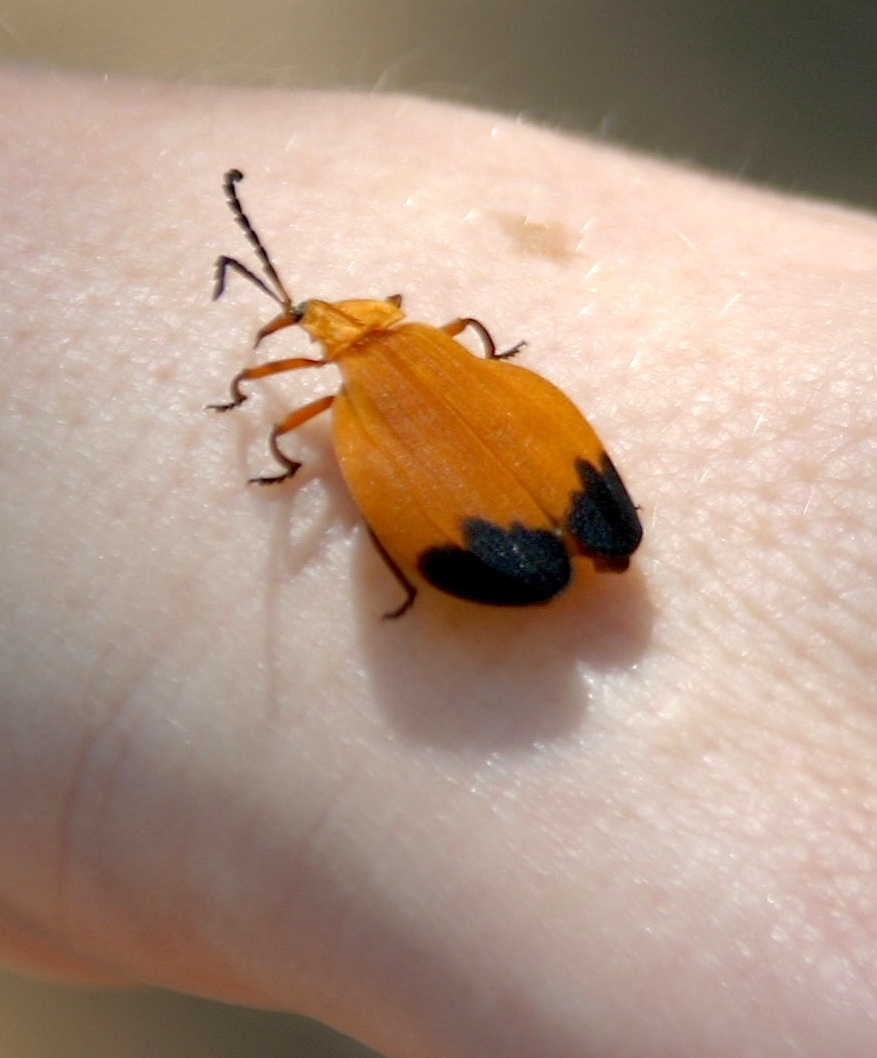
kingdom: Animalia
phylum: Arthropoda
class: Insecta
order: Coleoptera
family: Lycidae
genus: Lycus
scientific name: Lycus fernandezi
